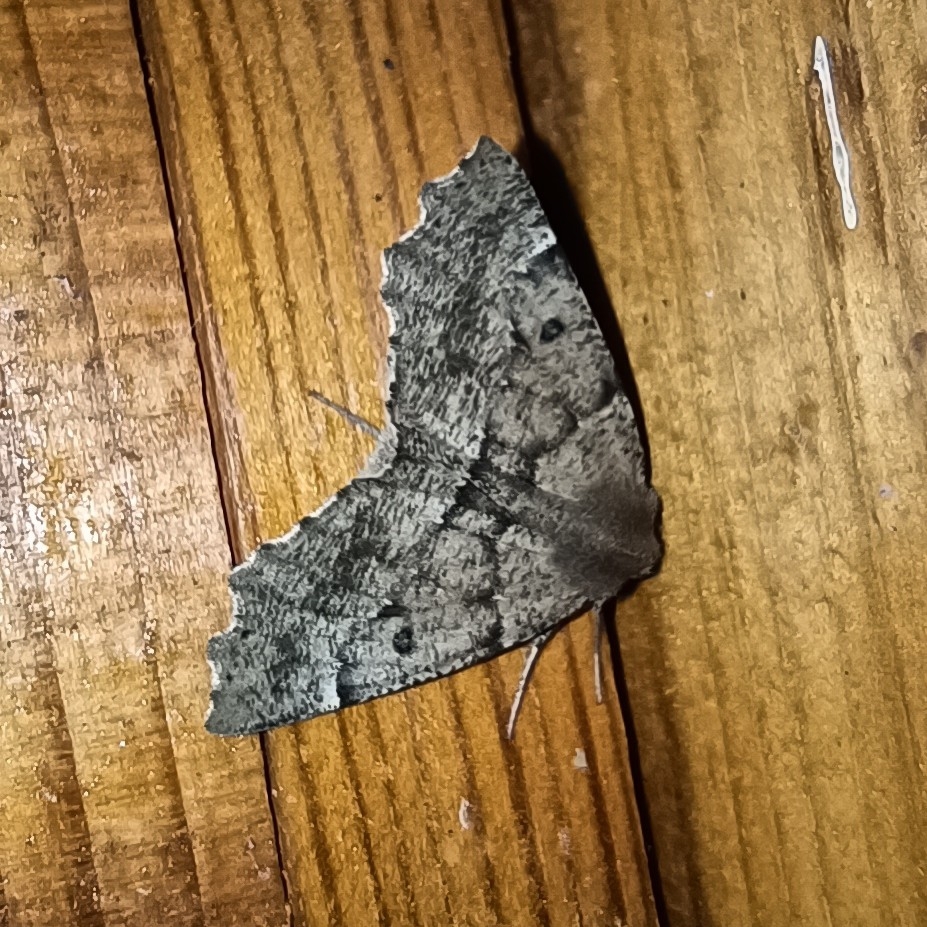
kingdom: Animalia
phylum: Arthropoda
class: Insecta
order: Lepidoptera
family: Geometridae
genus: Odontopera
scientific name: Odontopera bidentata
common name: Scalloped hazel
